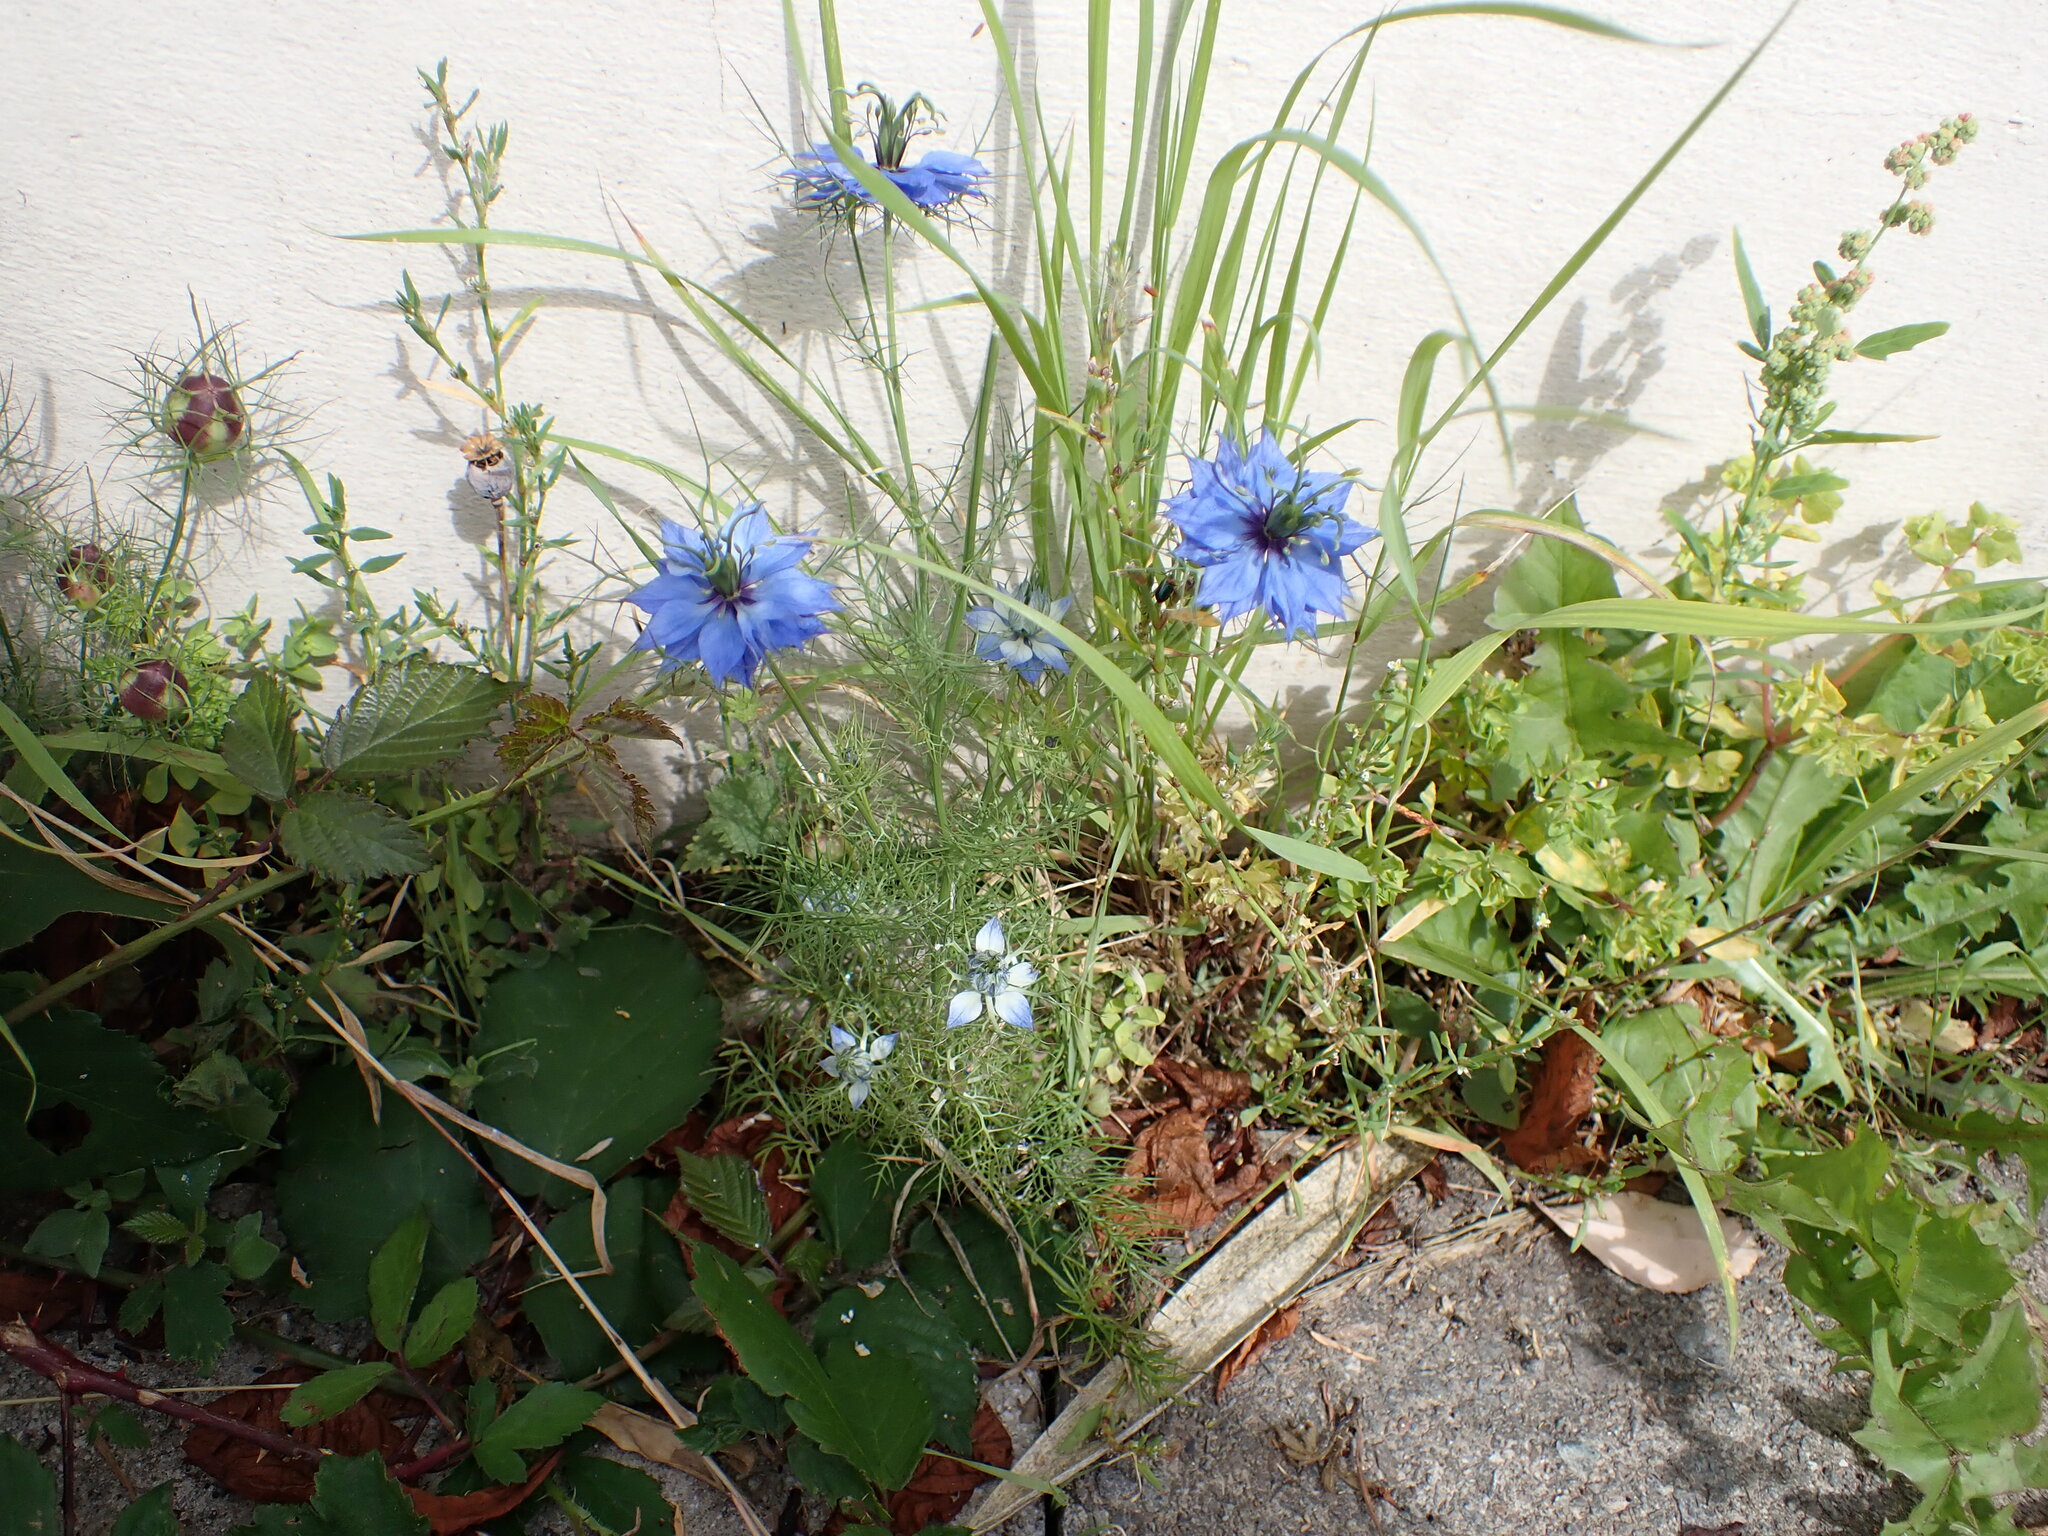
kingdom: Plantae
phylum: Tracheophyta
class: Magnoliopsida
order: Ranunculales
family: Ranunculaceae
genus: Nigella
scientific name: Nigella damascena
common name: Love-in-a-mist
